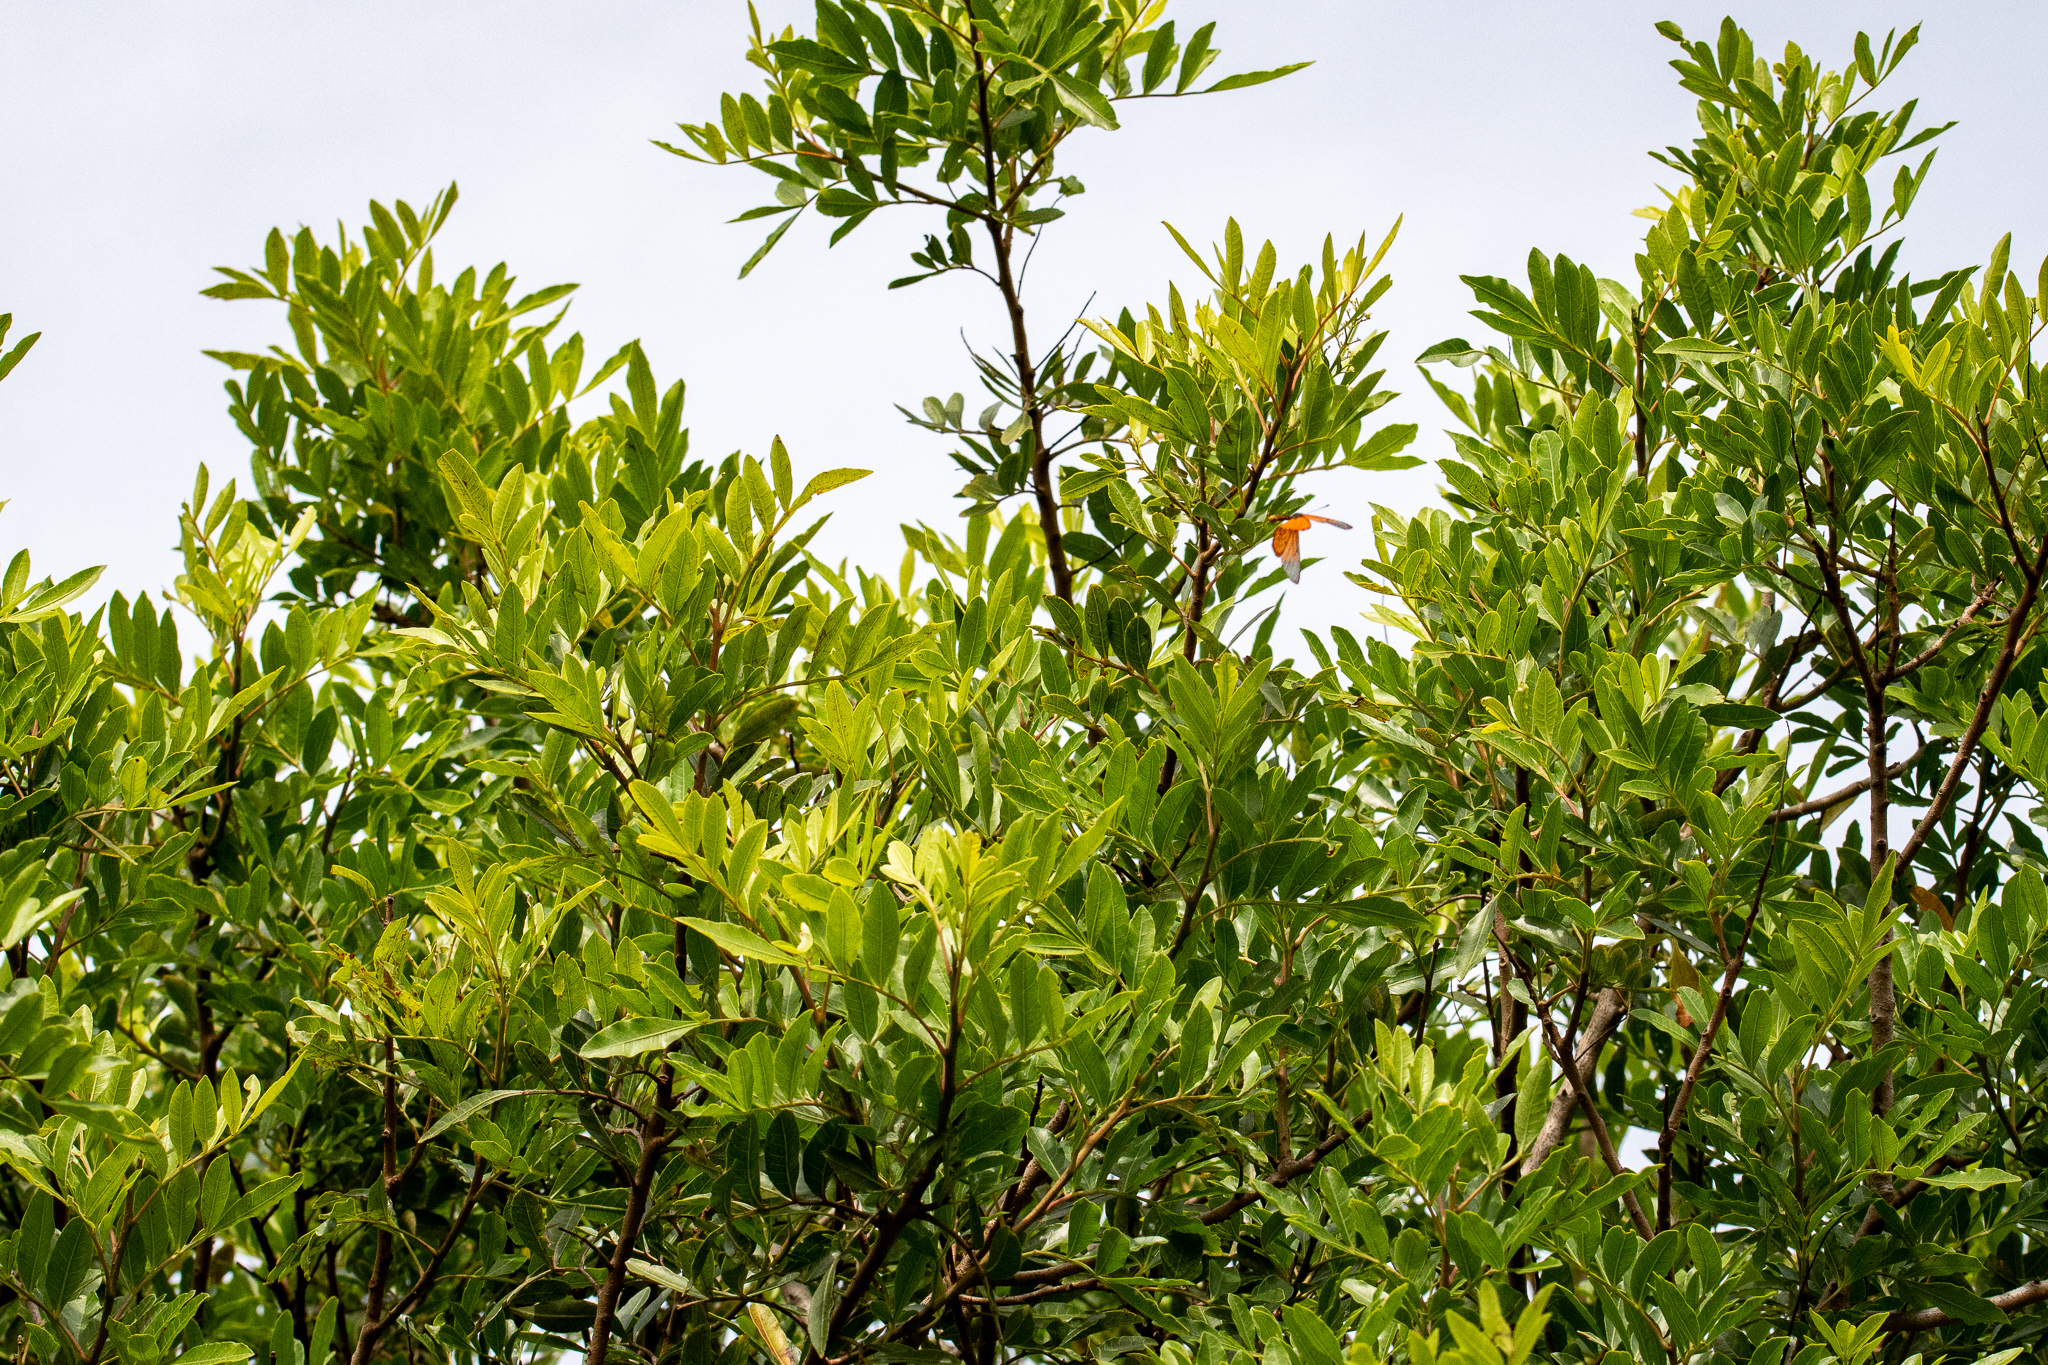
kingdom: Animalia
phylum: Arthropoda
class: Insecta
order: Lepidoptera
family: Nymphalidae
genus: Acraea
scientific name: Acraea horta
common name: Garden acraea
